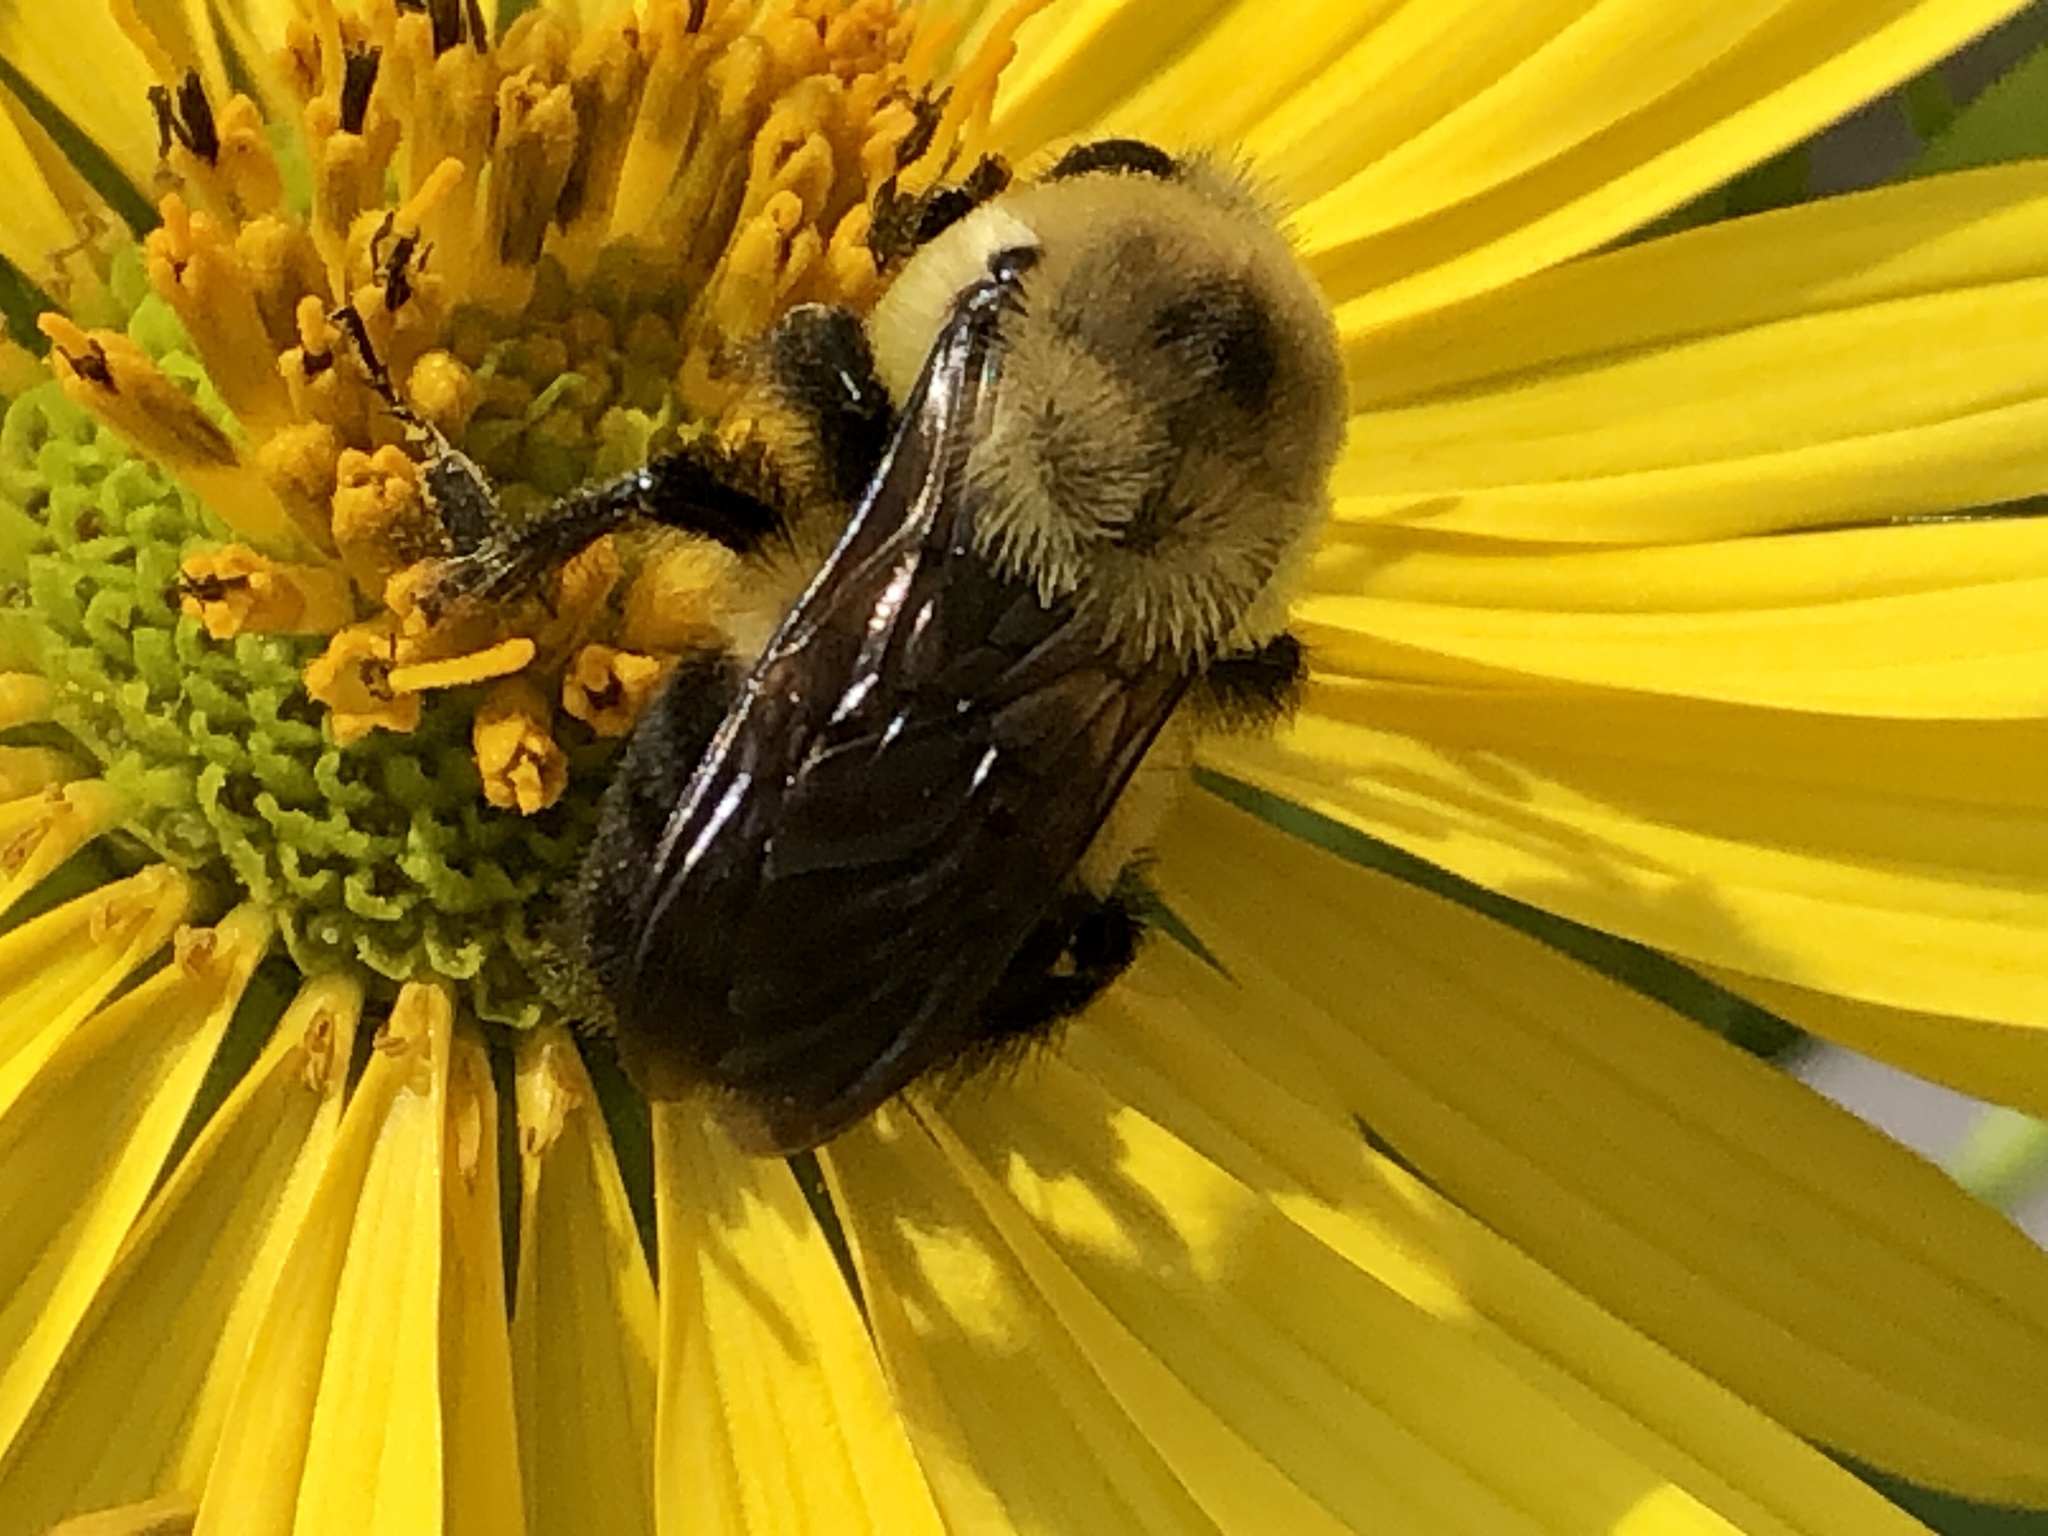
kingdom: Animalia
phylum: Arthropoda
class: Insecta
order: Hymenoptera
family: Apidae
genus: Bombus
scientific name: Bombus griseocollis
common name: Brown-belted bumble bee
